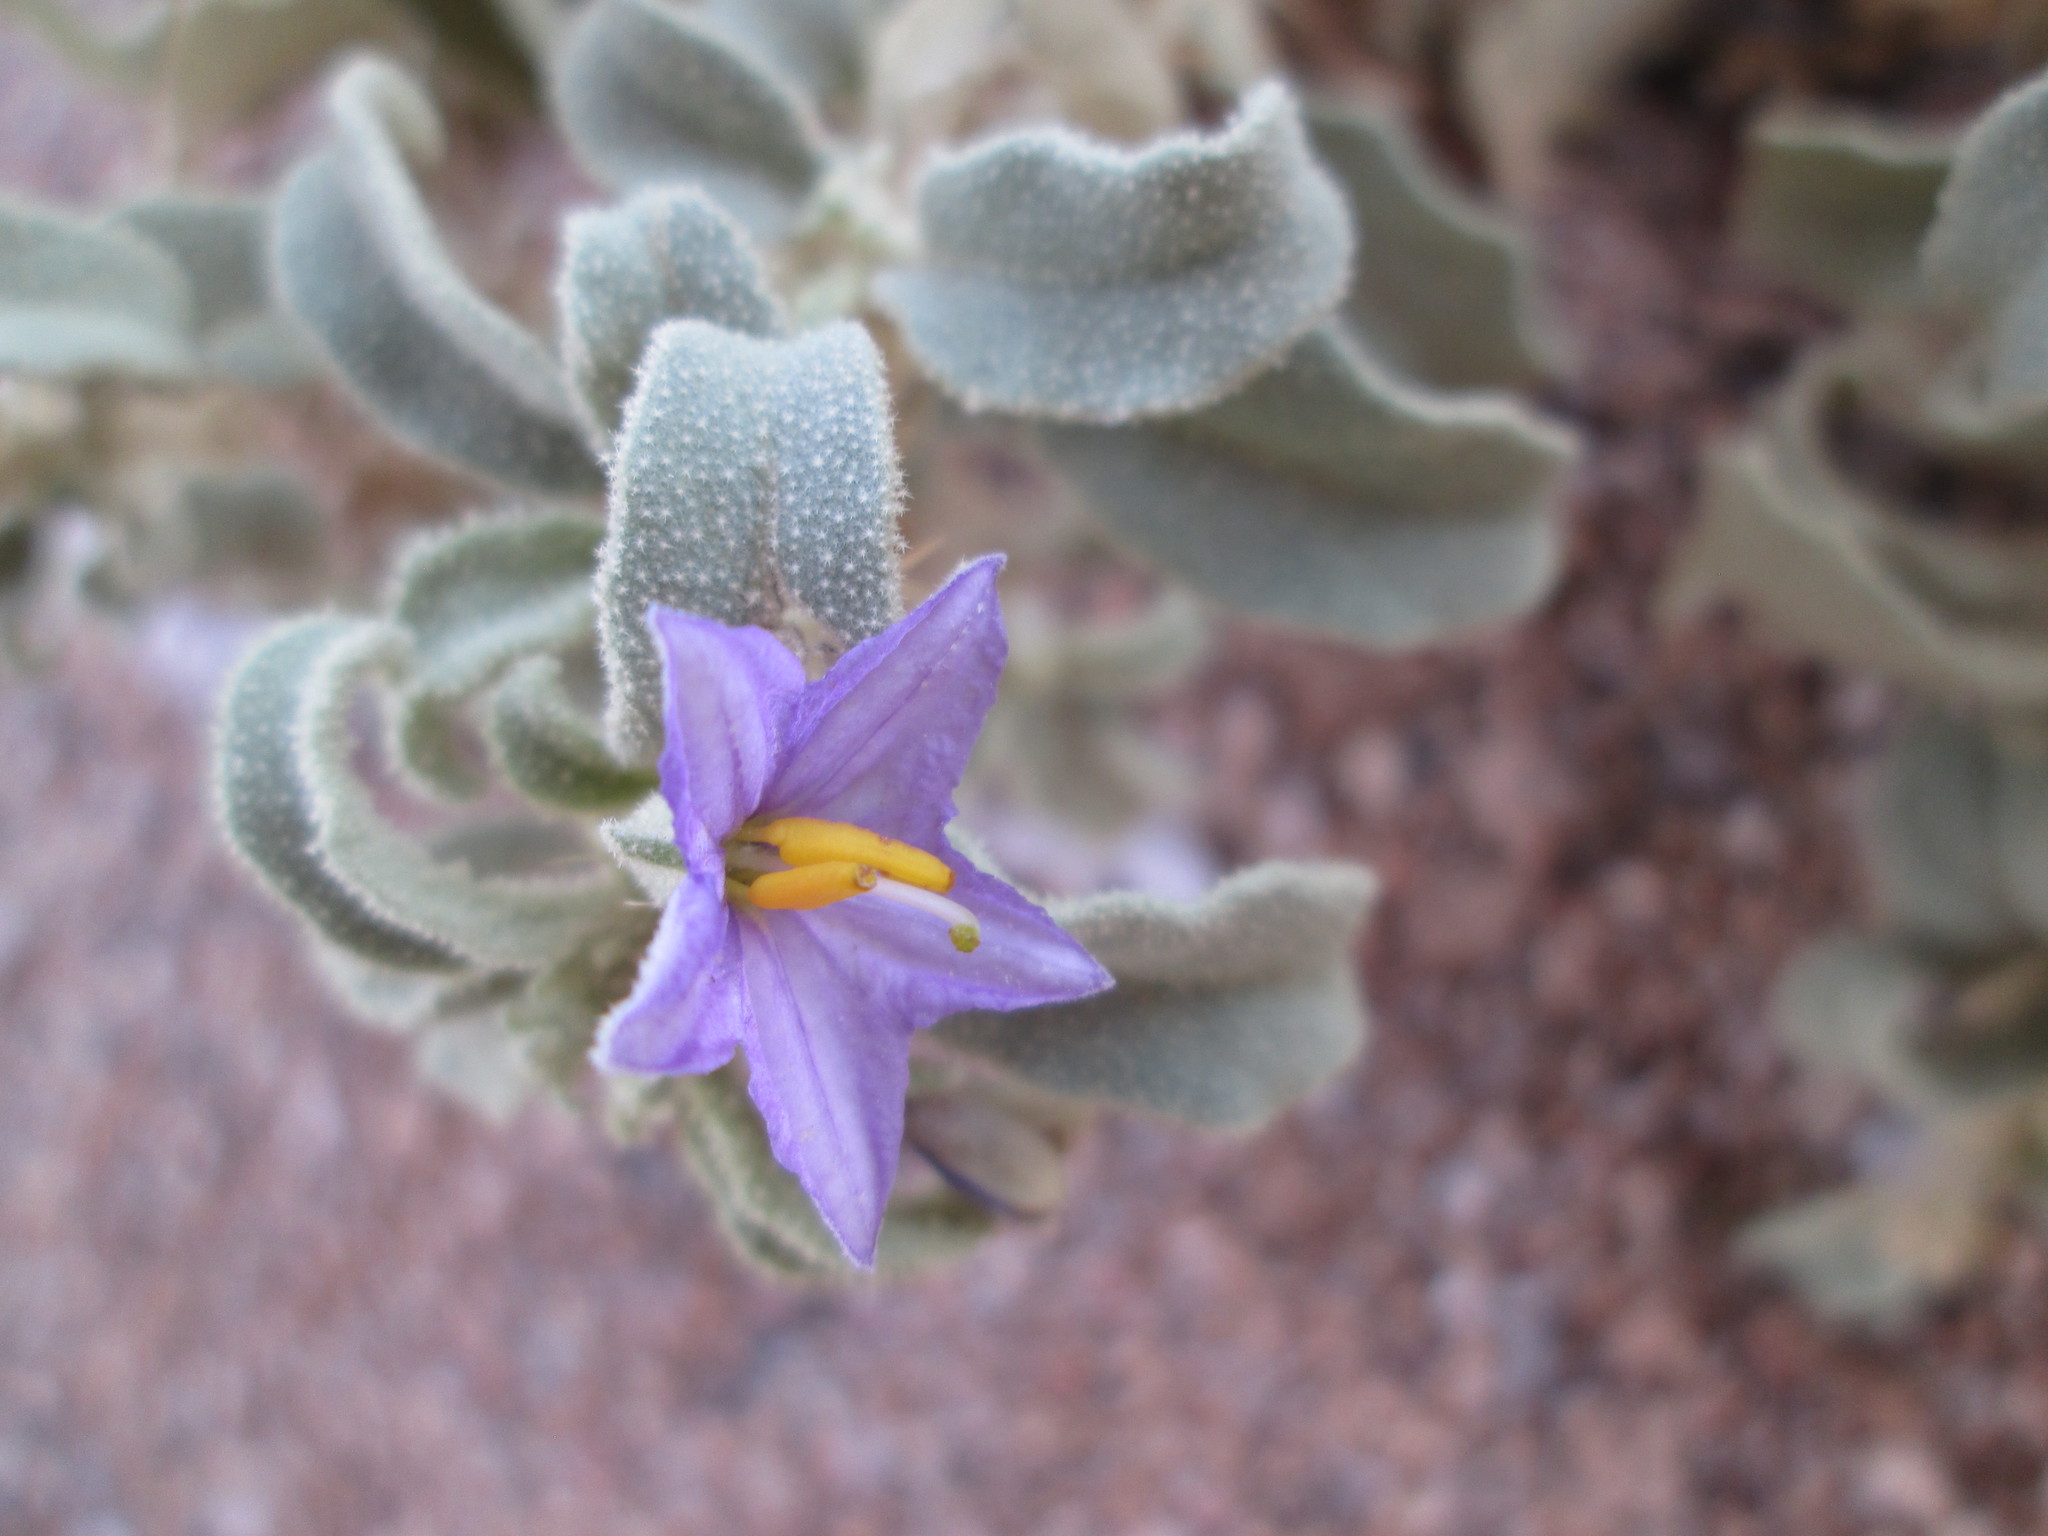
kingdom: Plantae
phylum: Tracheophyta
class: Magnoliopsida
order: Solanales
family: Solanaceae
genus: Solanum
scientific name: Solanum burchellii
